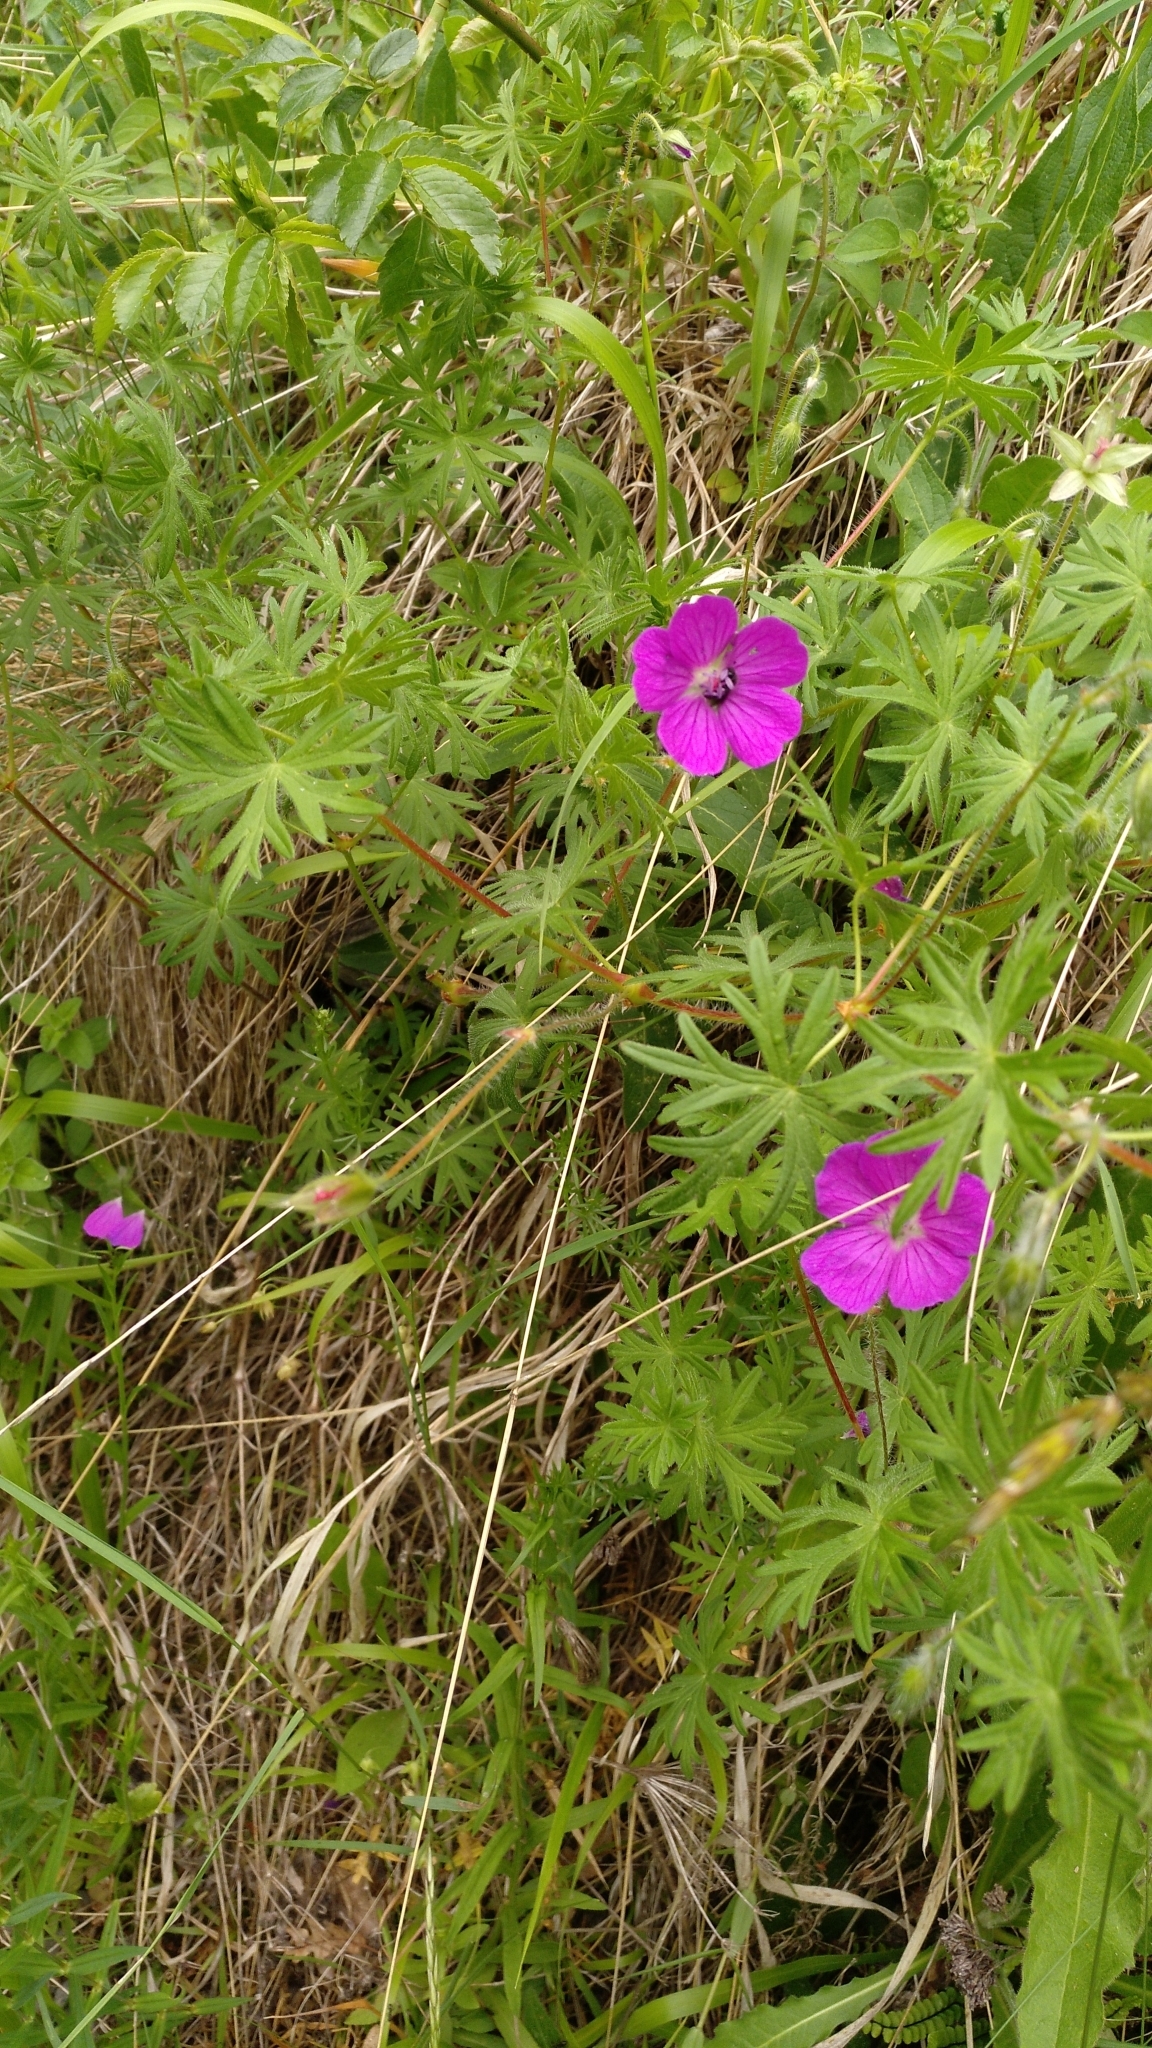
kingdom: Plantae
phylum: Tracheophyta
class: Magnoliopsida
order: Geraniales
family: Geraniaceae
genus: Geranium
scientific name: Geranium dissectum
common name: Cut-leaved crane's-bill
